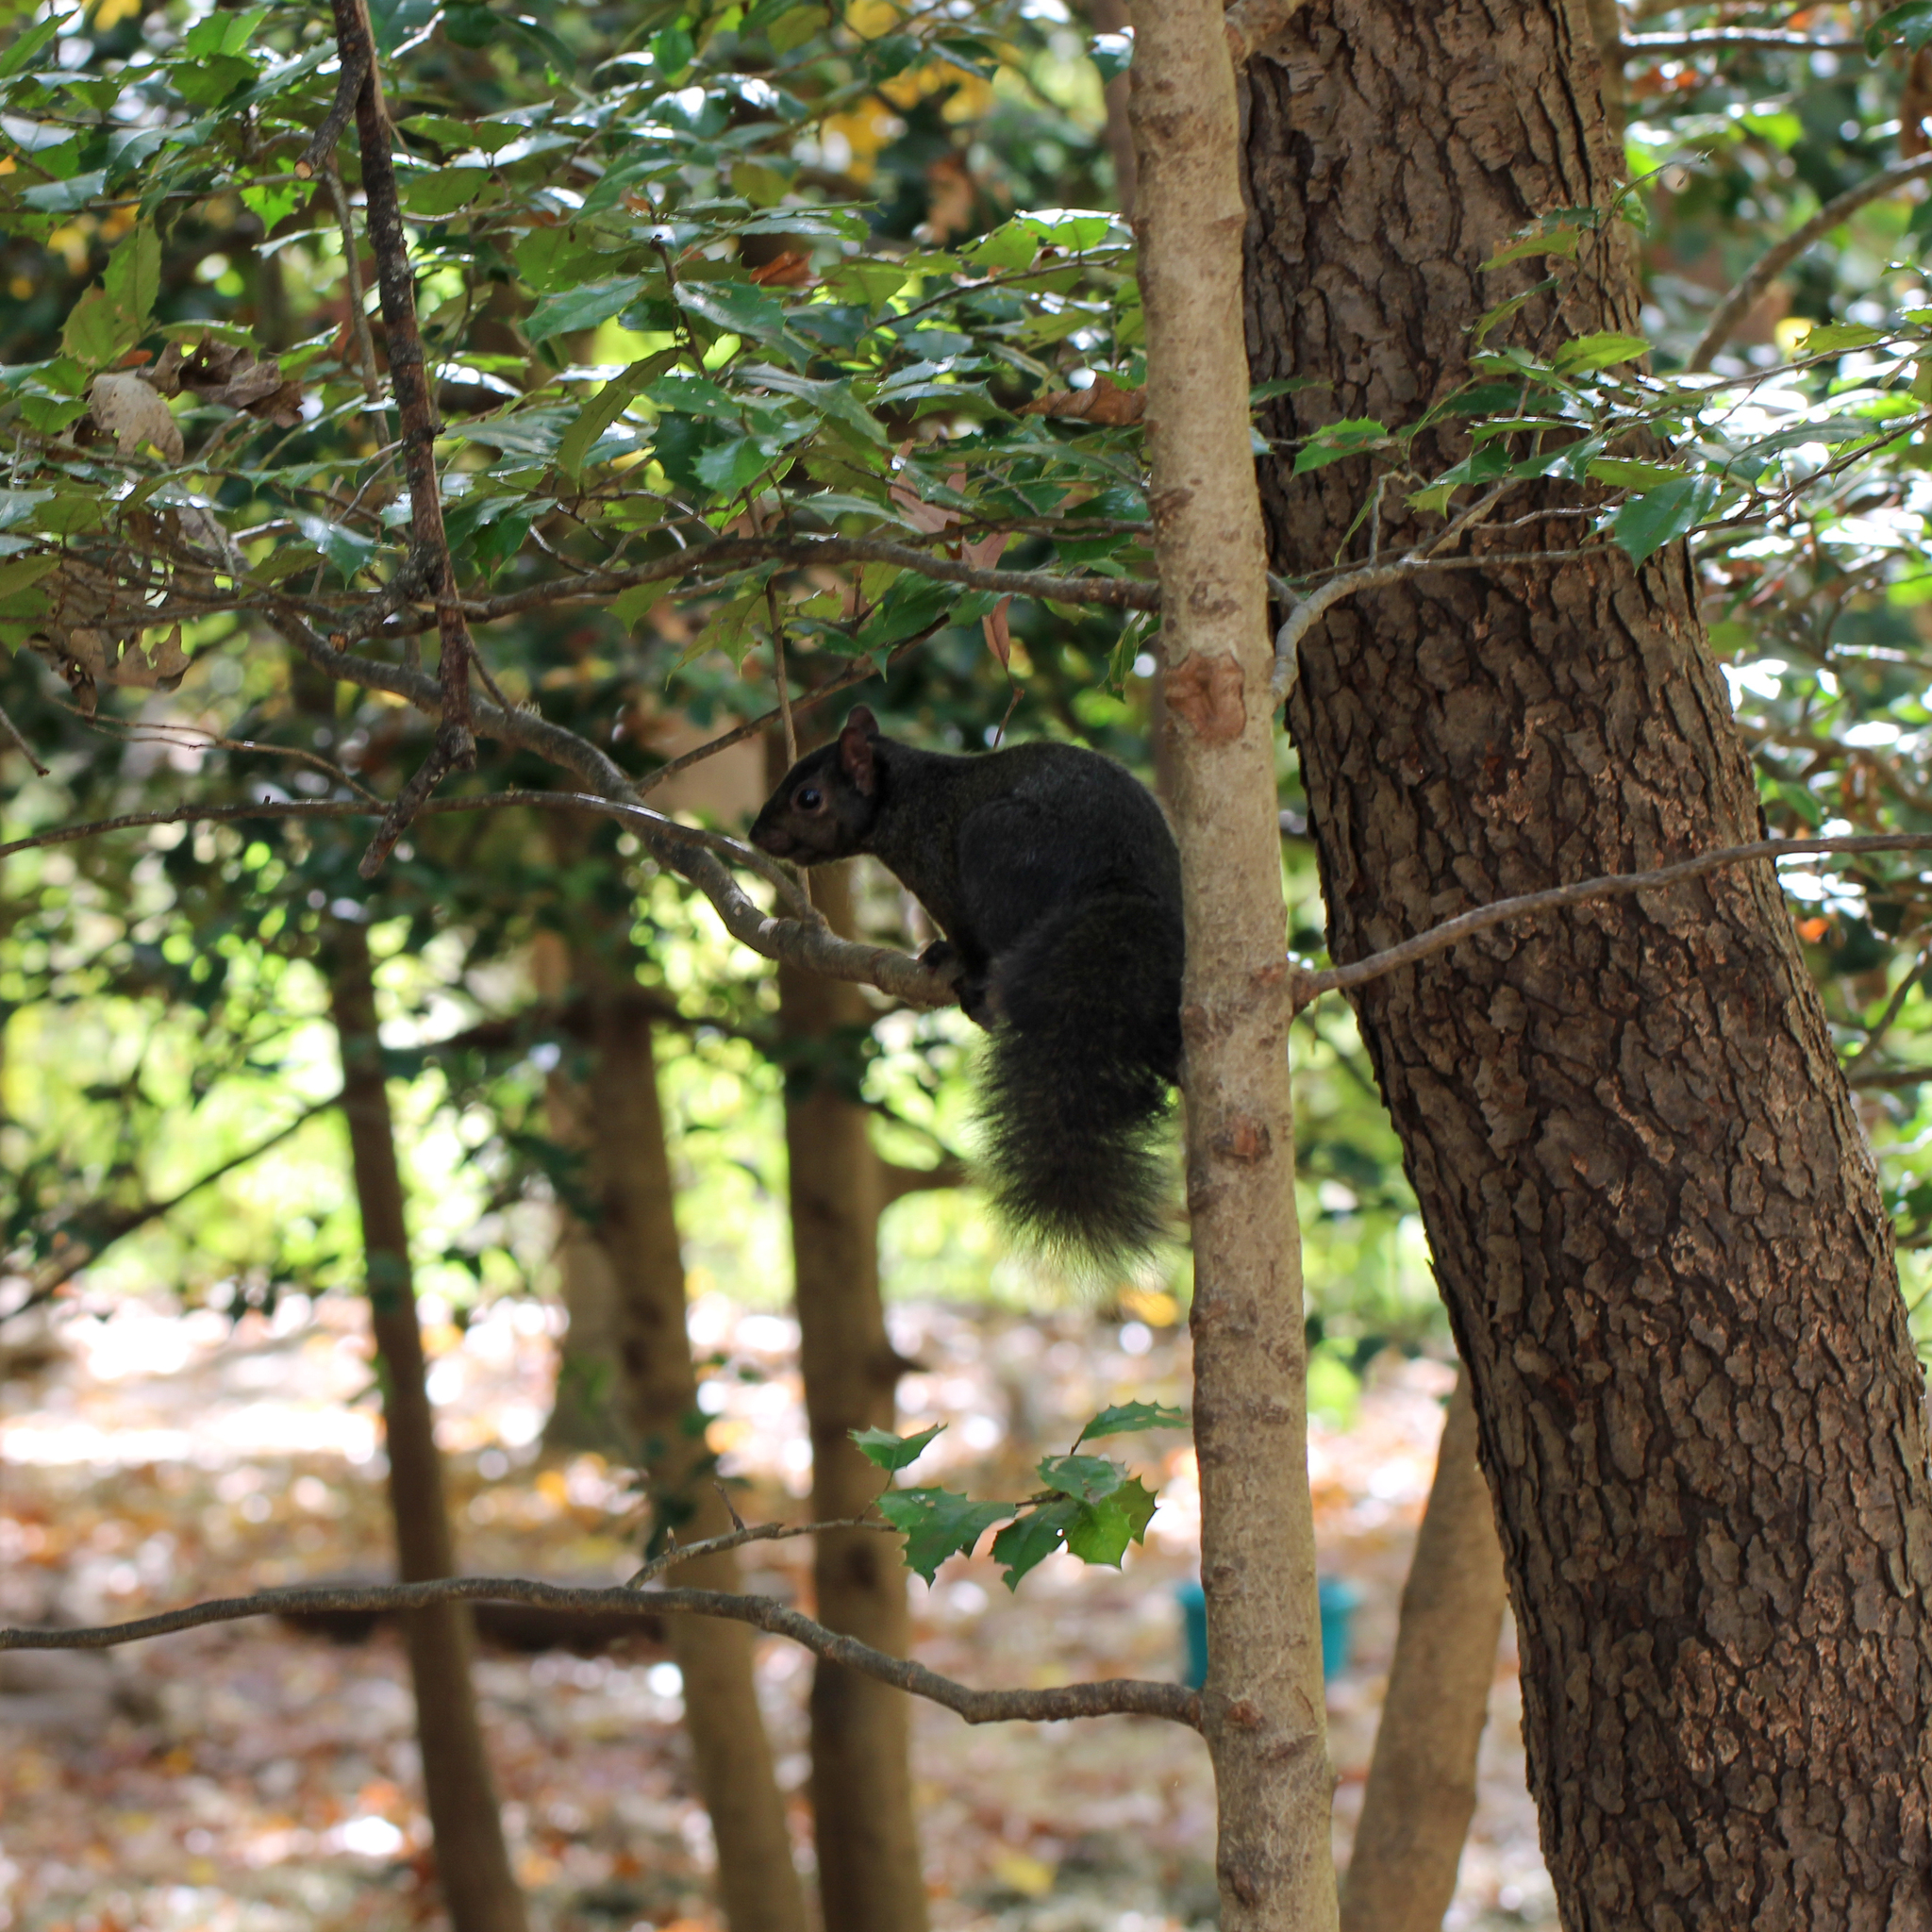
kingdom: Animalia
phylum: Chordata
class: Mammalia
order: Rodentia
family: Sciuridae
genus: Sciurus
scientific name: Sciurus carolinensis
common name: Eastern gray squirrel
